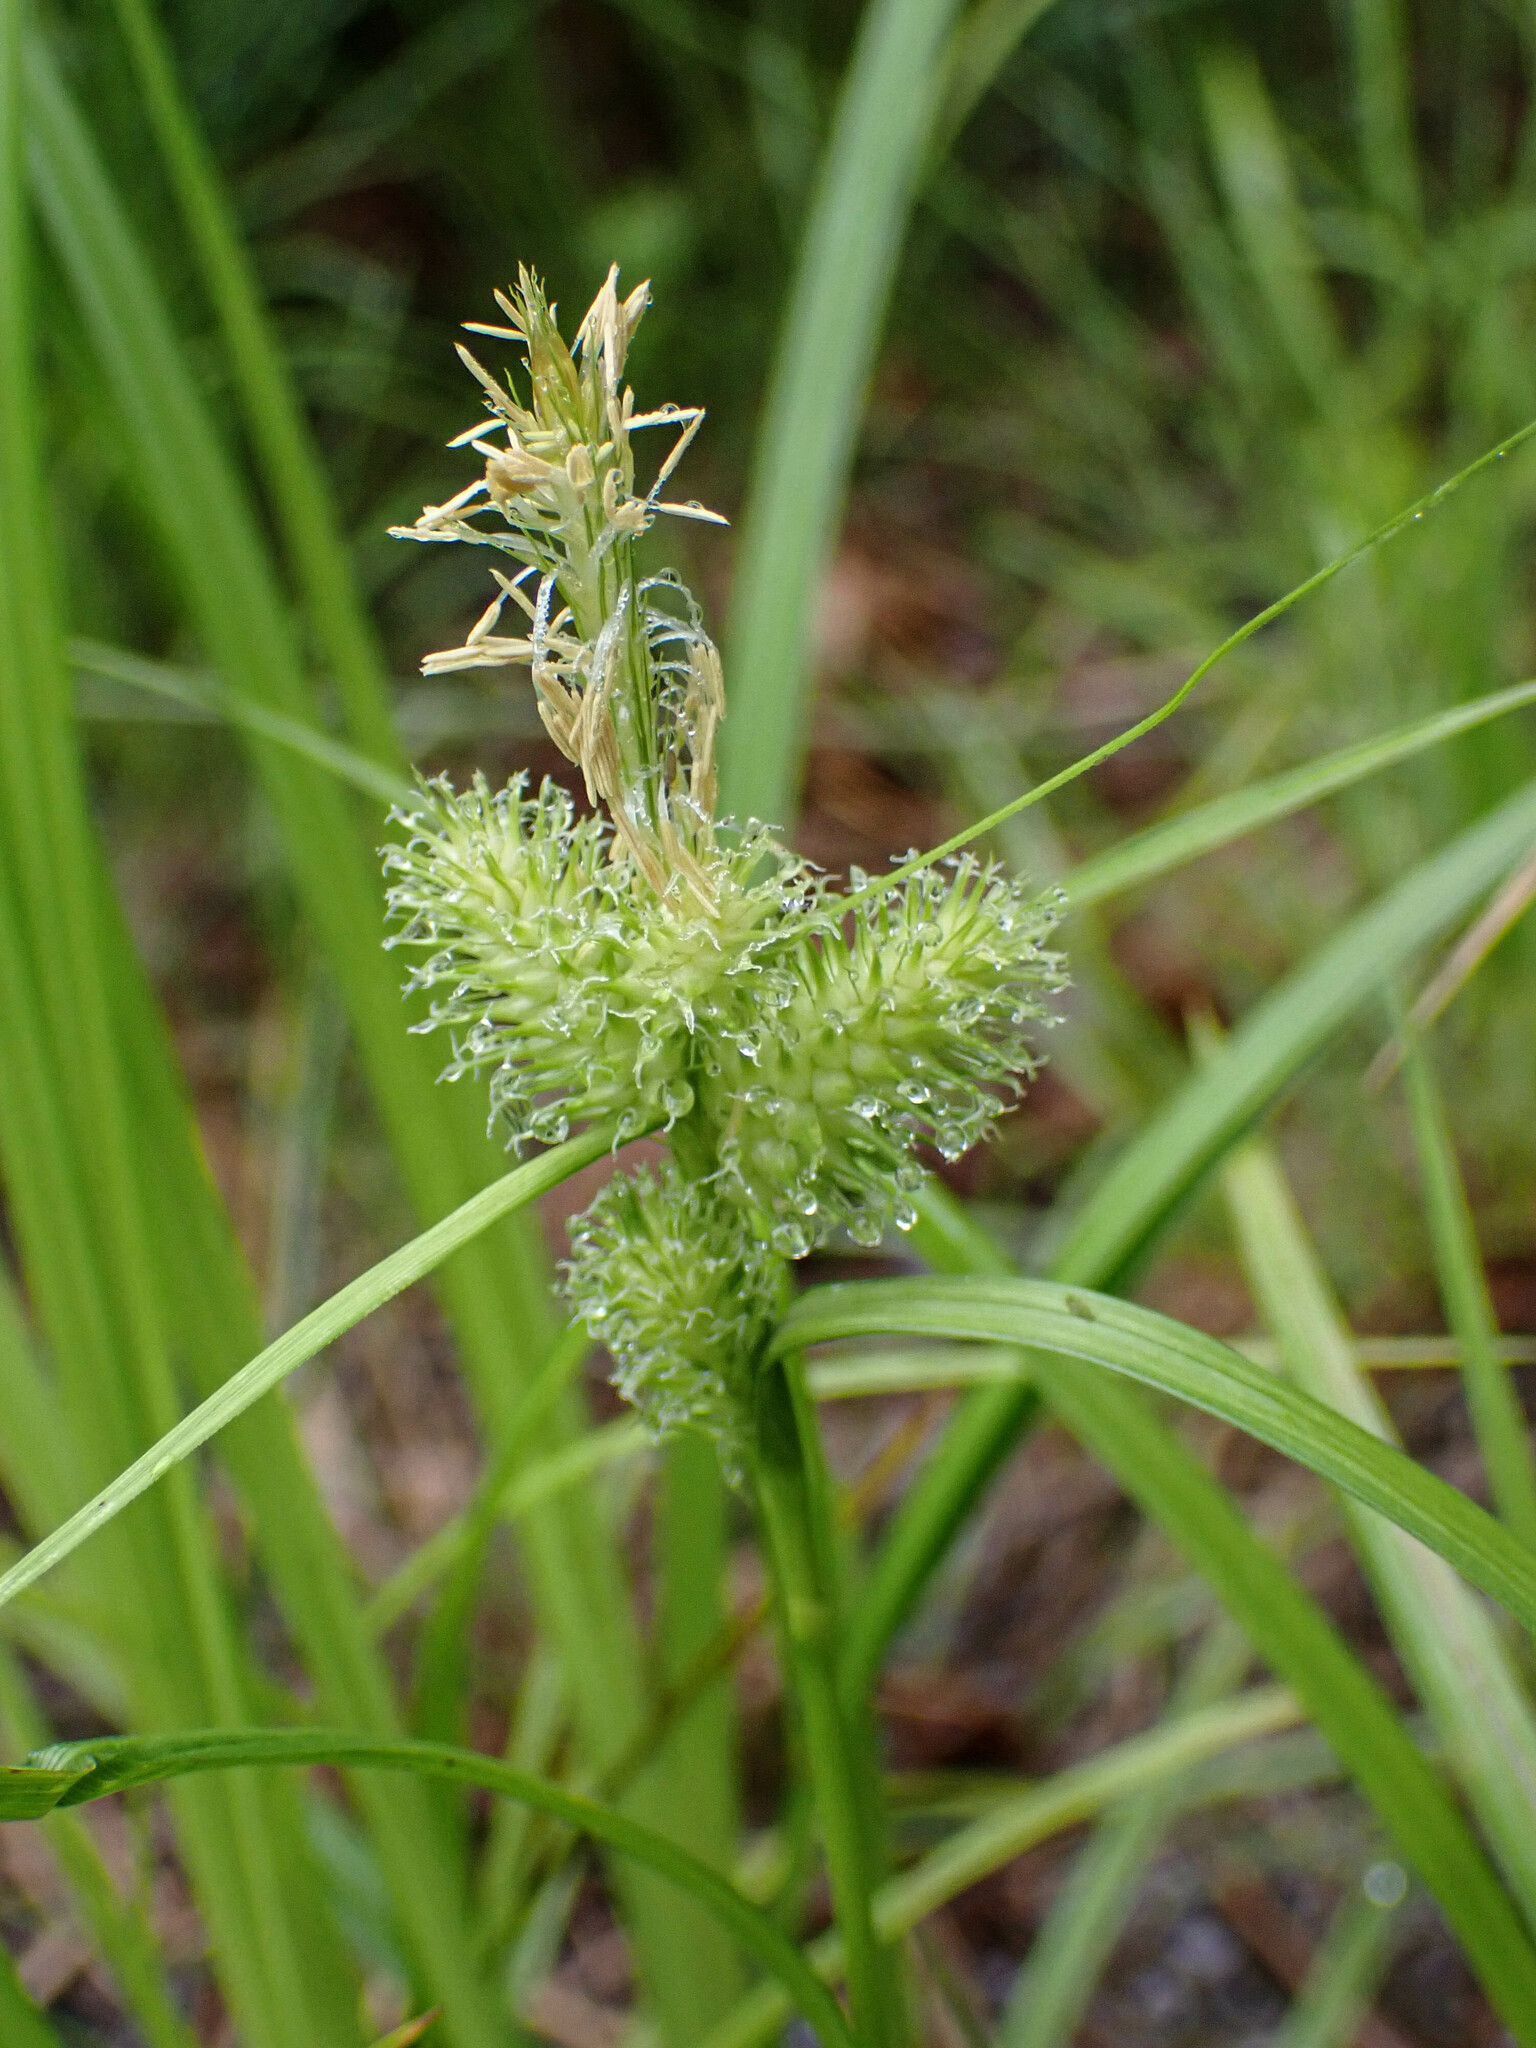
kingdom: Plantae
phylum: Tracheophyta
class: Liliopsida
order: Poales
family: Cyperaceae
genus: Carex
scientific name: Carex lurida
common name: Sallow sedge
